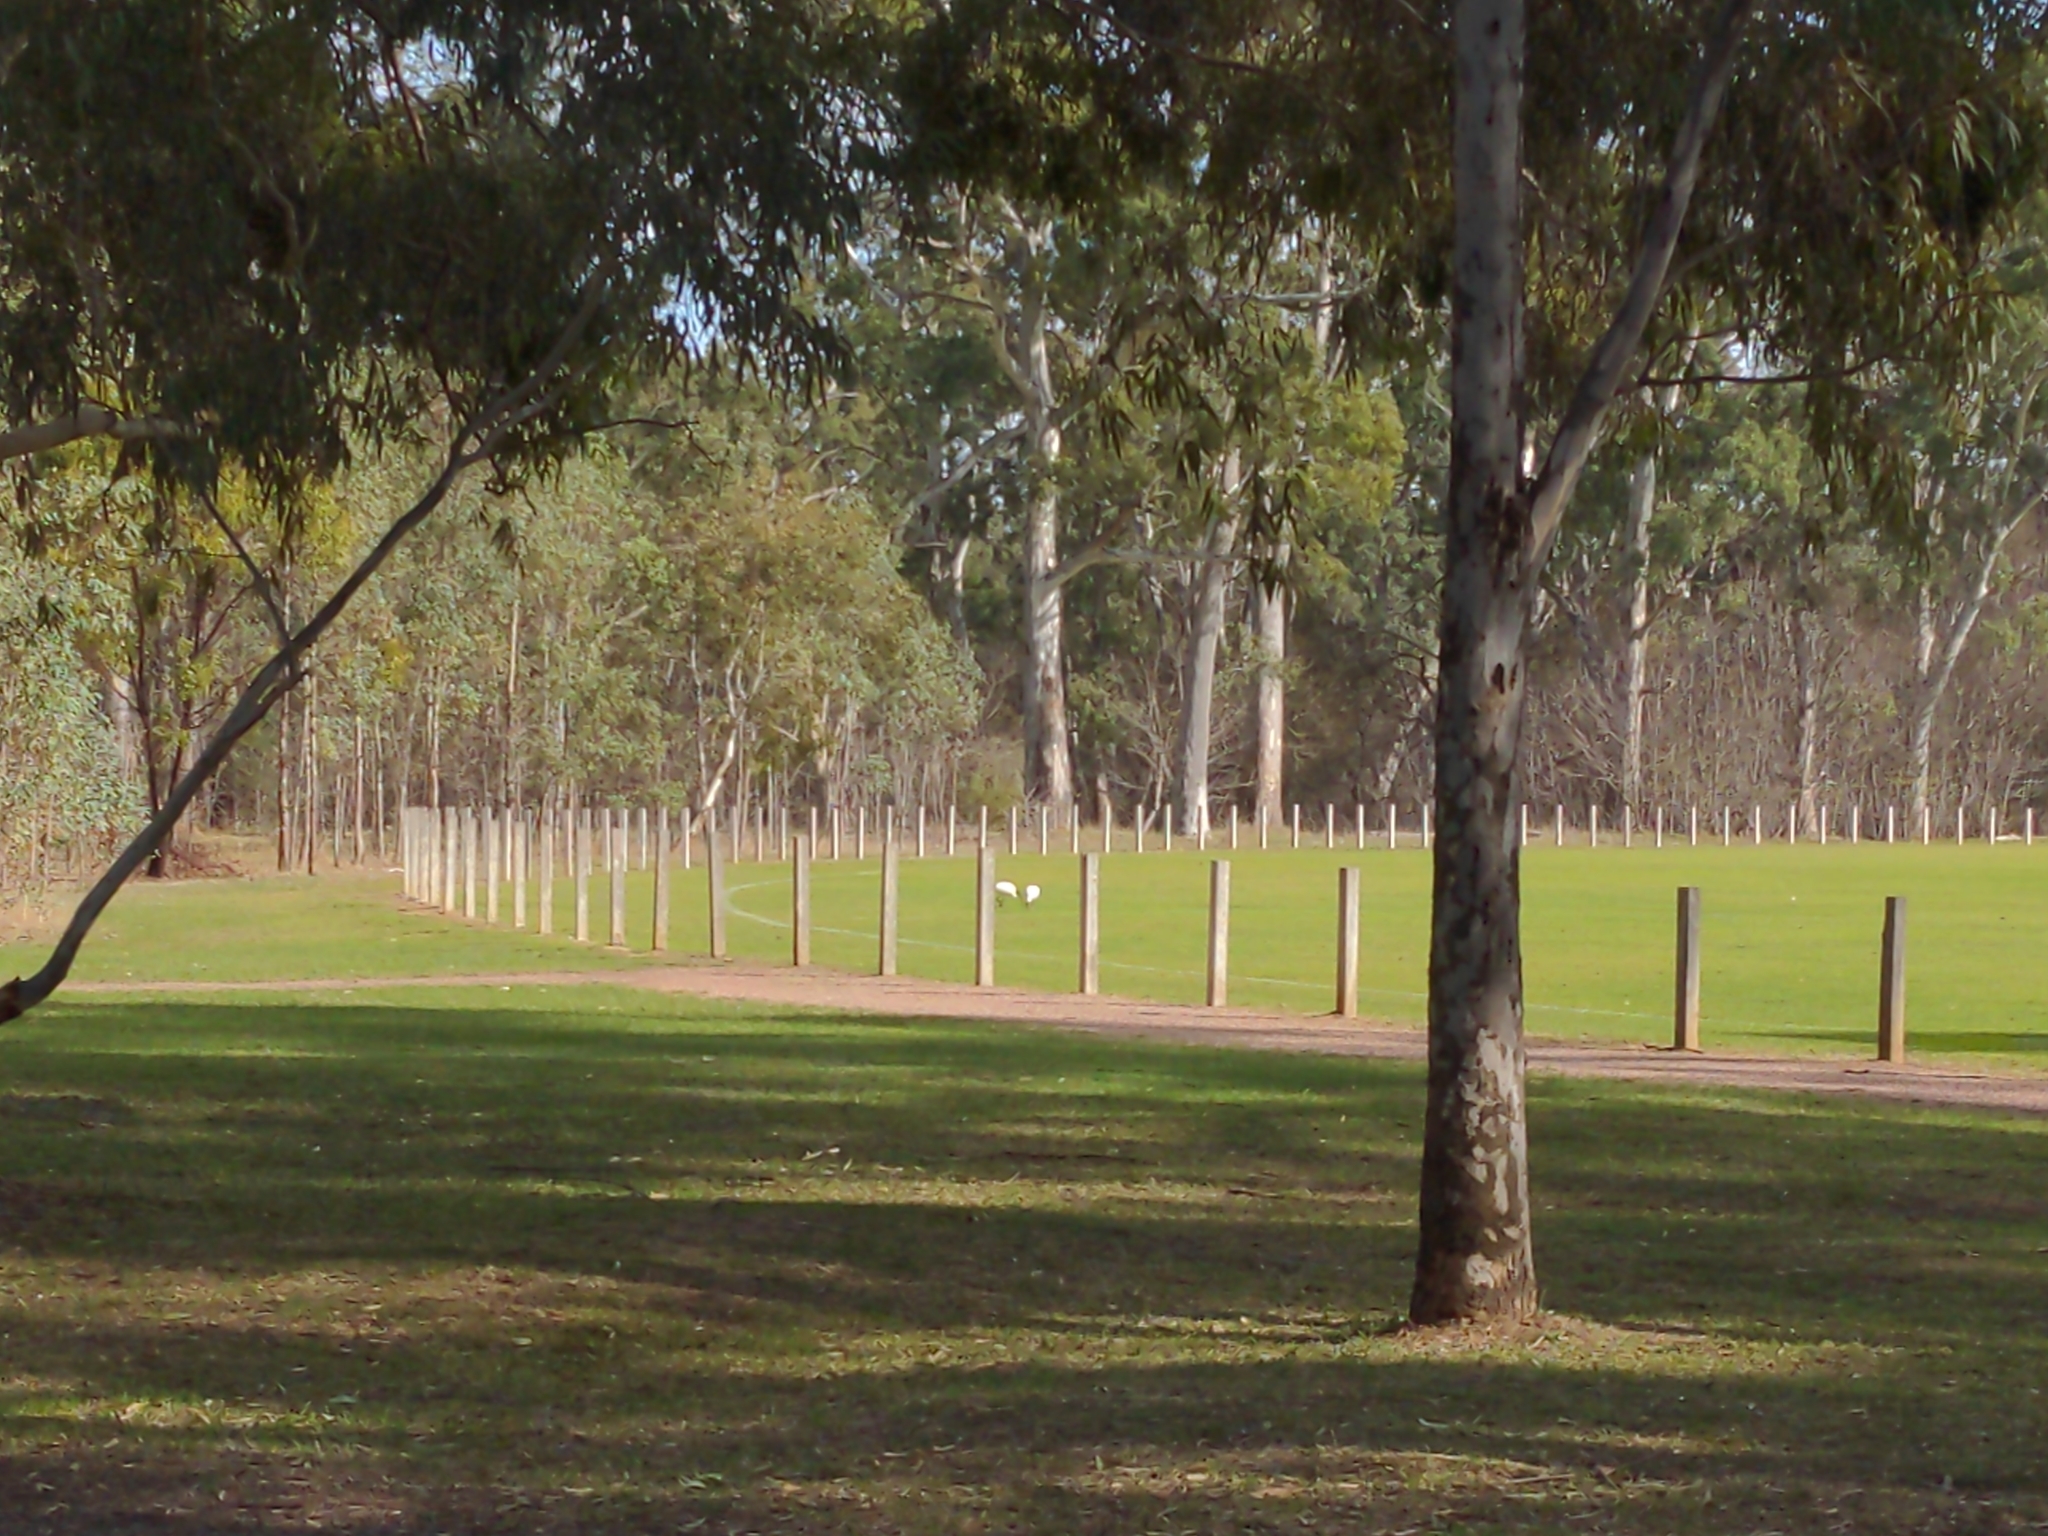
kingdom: Animalia
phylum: Chordata
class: Aves
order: Pelecaniformes
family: Threskiornithidae
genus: Threskiornis
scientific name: Threskiornis molucca
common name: Australian white ibis
